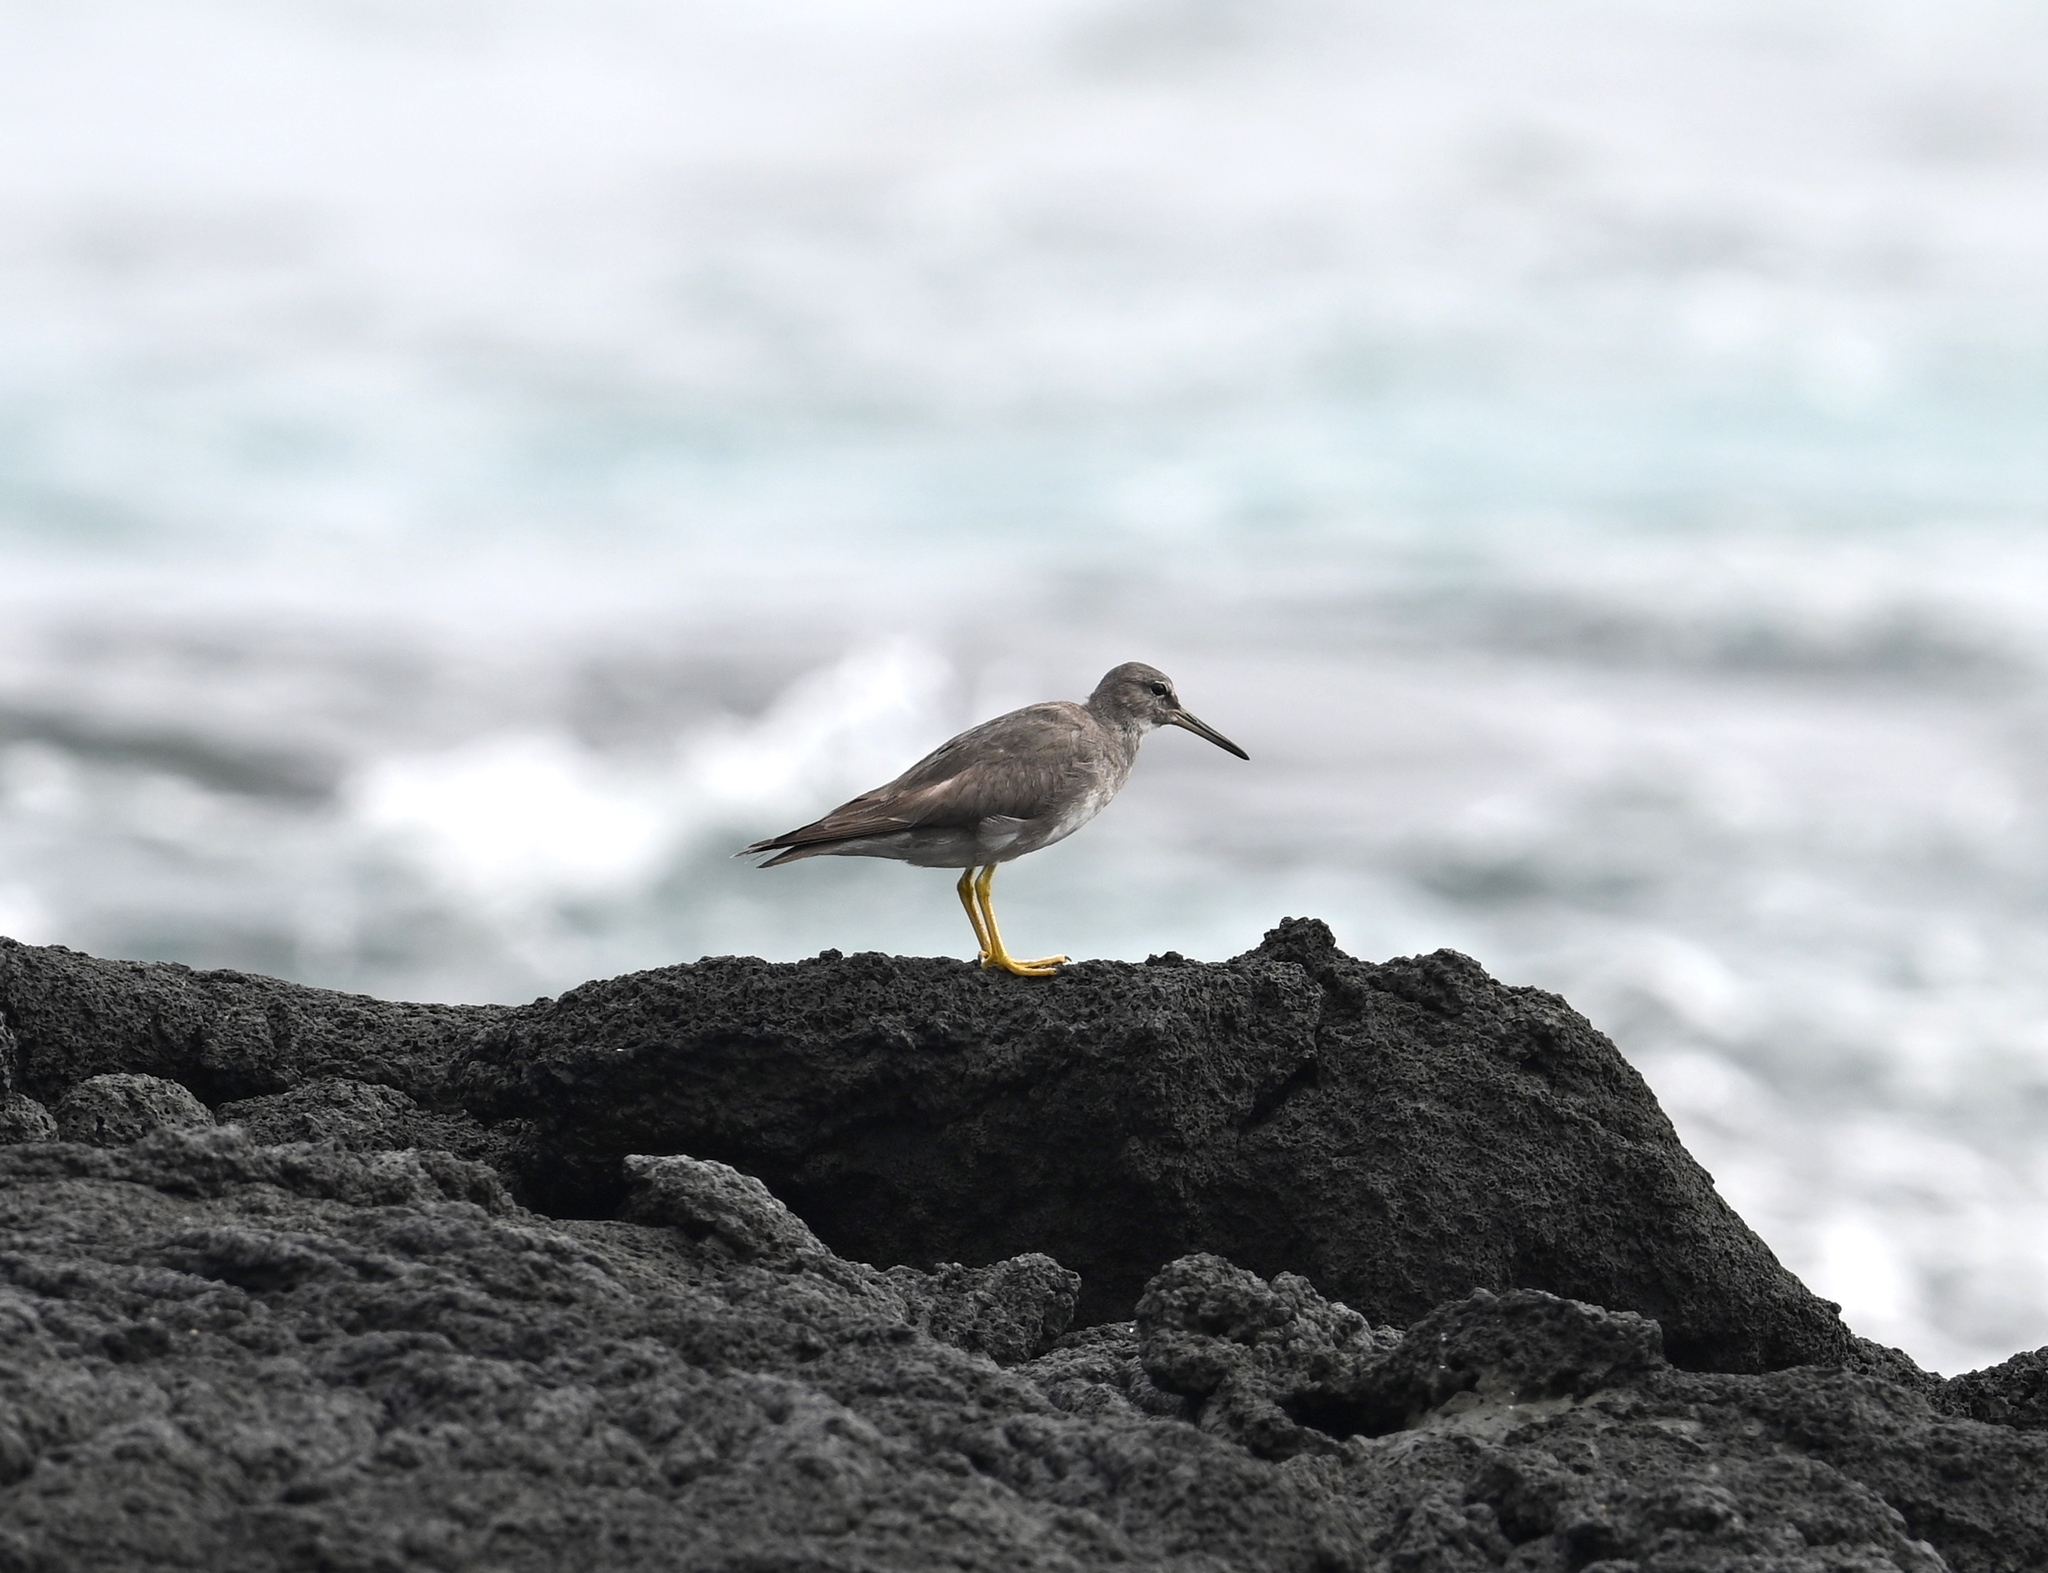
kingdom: Animalia
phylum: Chordata
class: Aves
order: Charadriiformes
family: Scolopacidae
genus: Tringa
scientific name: Tringa incana
